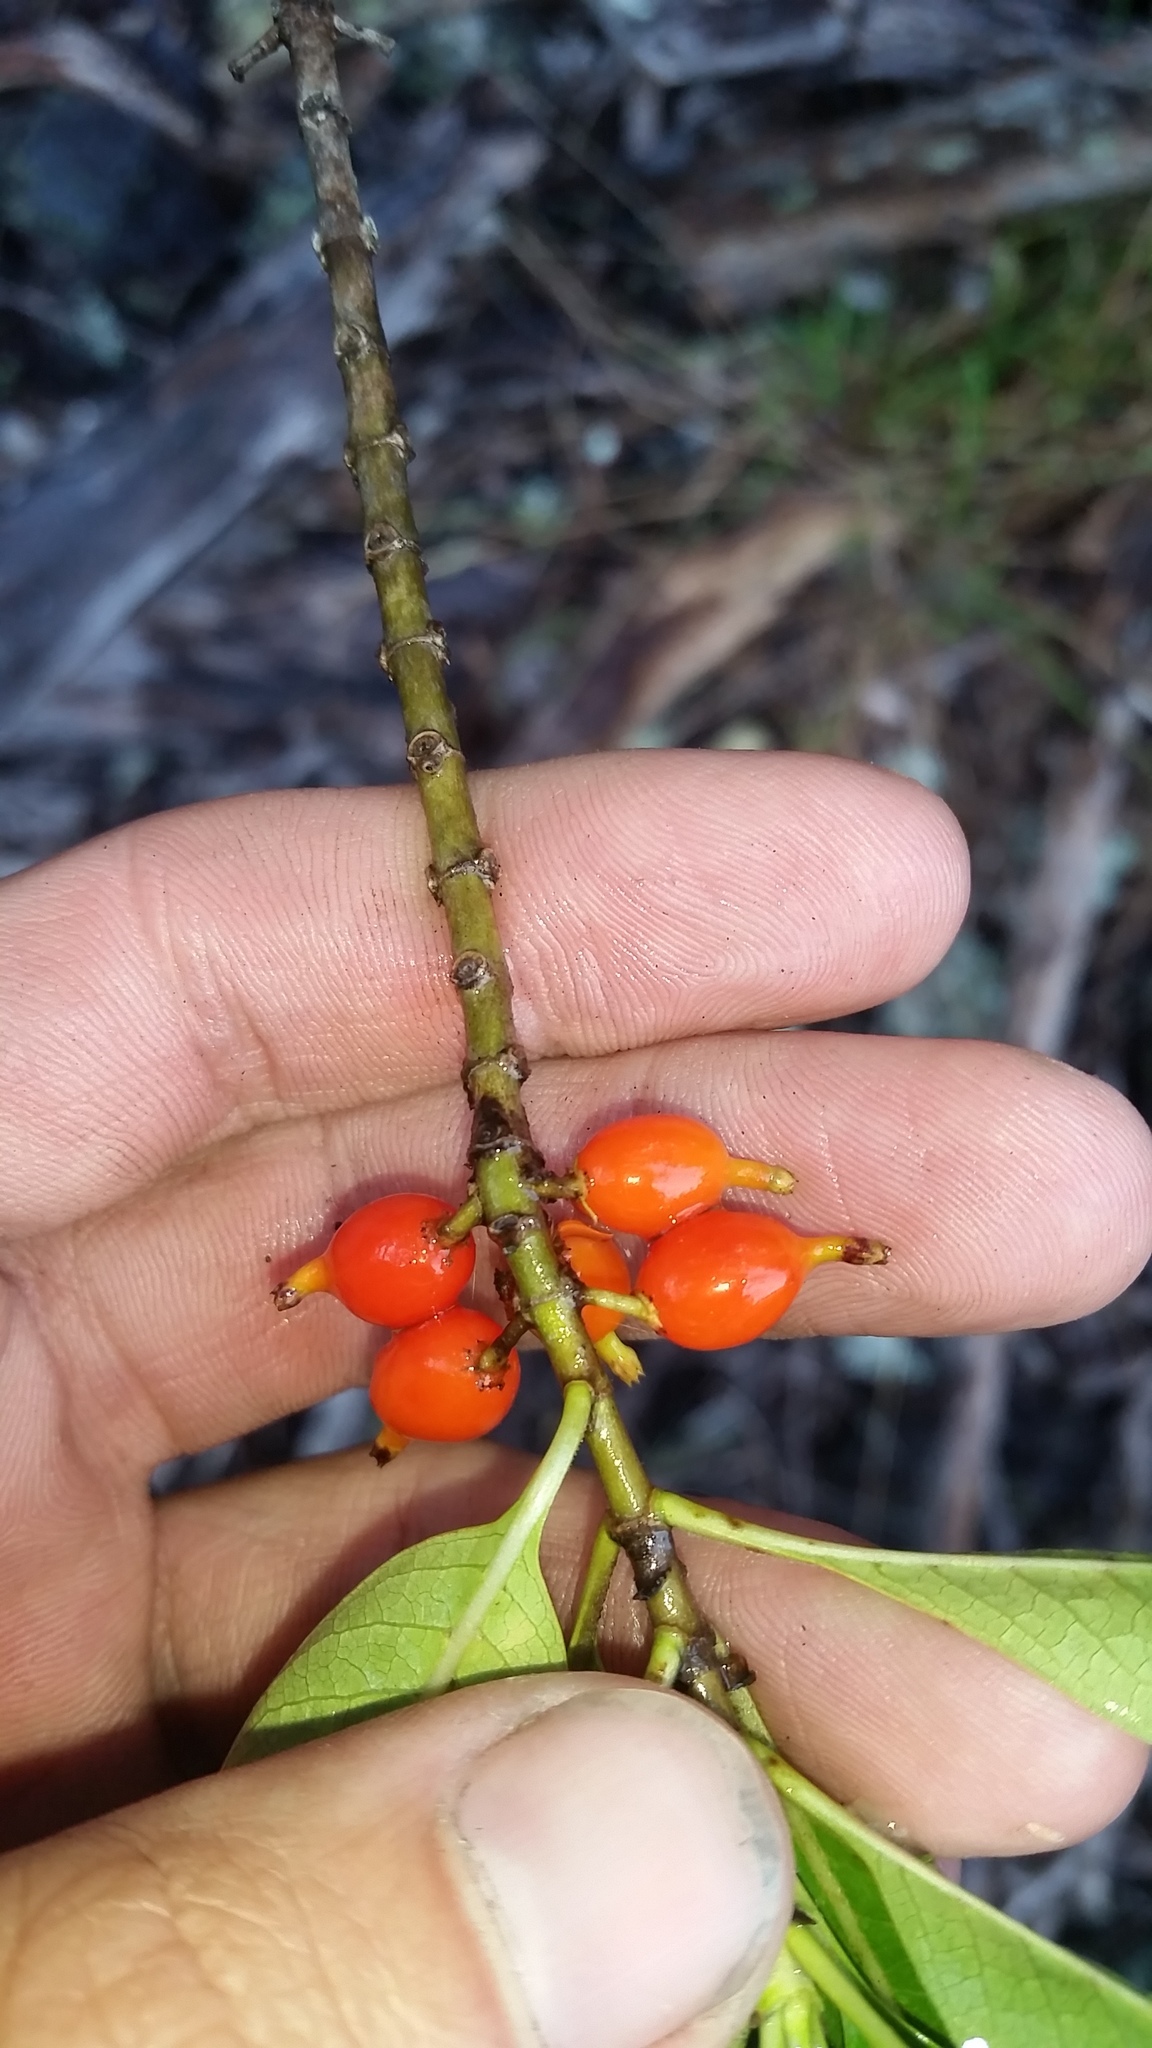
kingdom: Plantae
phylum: Tracheophyta
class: Magnoliopsida
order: Gentianales
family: Rubiaceae
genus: Coprosma
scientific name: Coprosma rhynchocarpa
